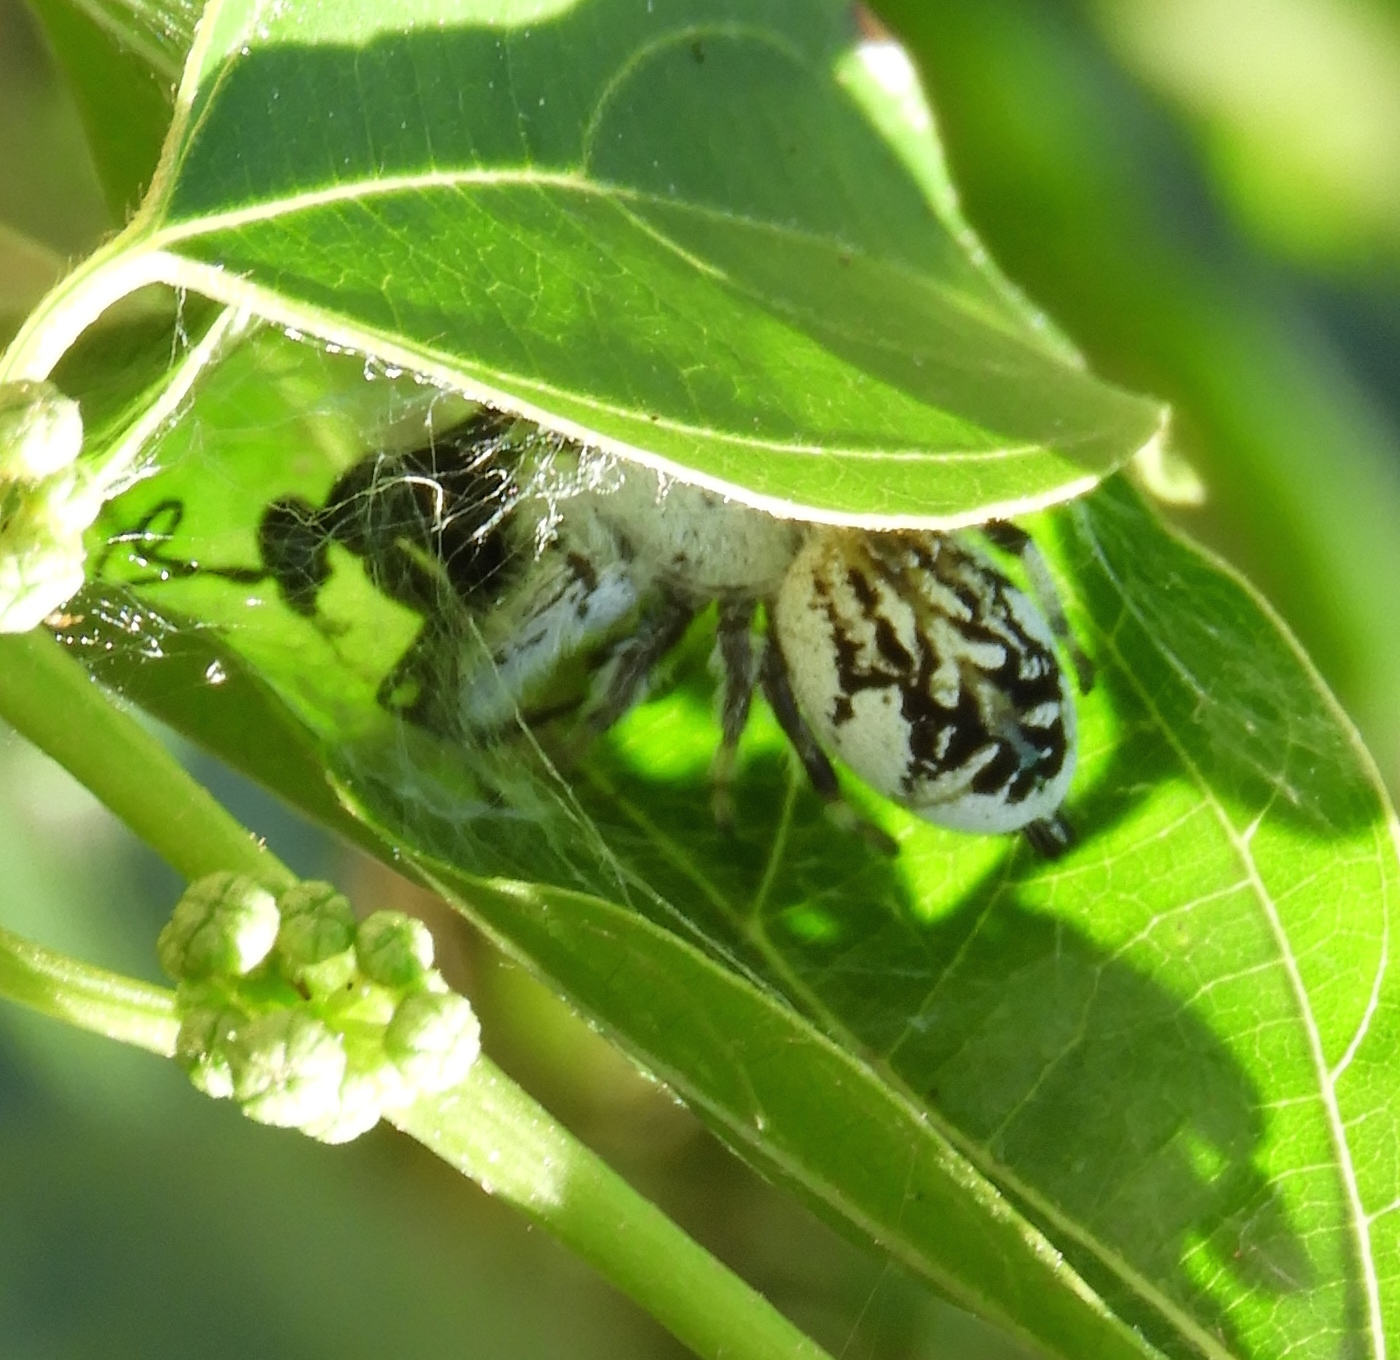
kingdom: Animalia
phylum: Arthropoda
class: Arachnida
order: Araneae
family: Salticidae
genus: Paraphidippus
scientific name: Paraphidippus fartilis
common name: Jumping spiders
